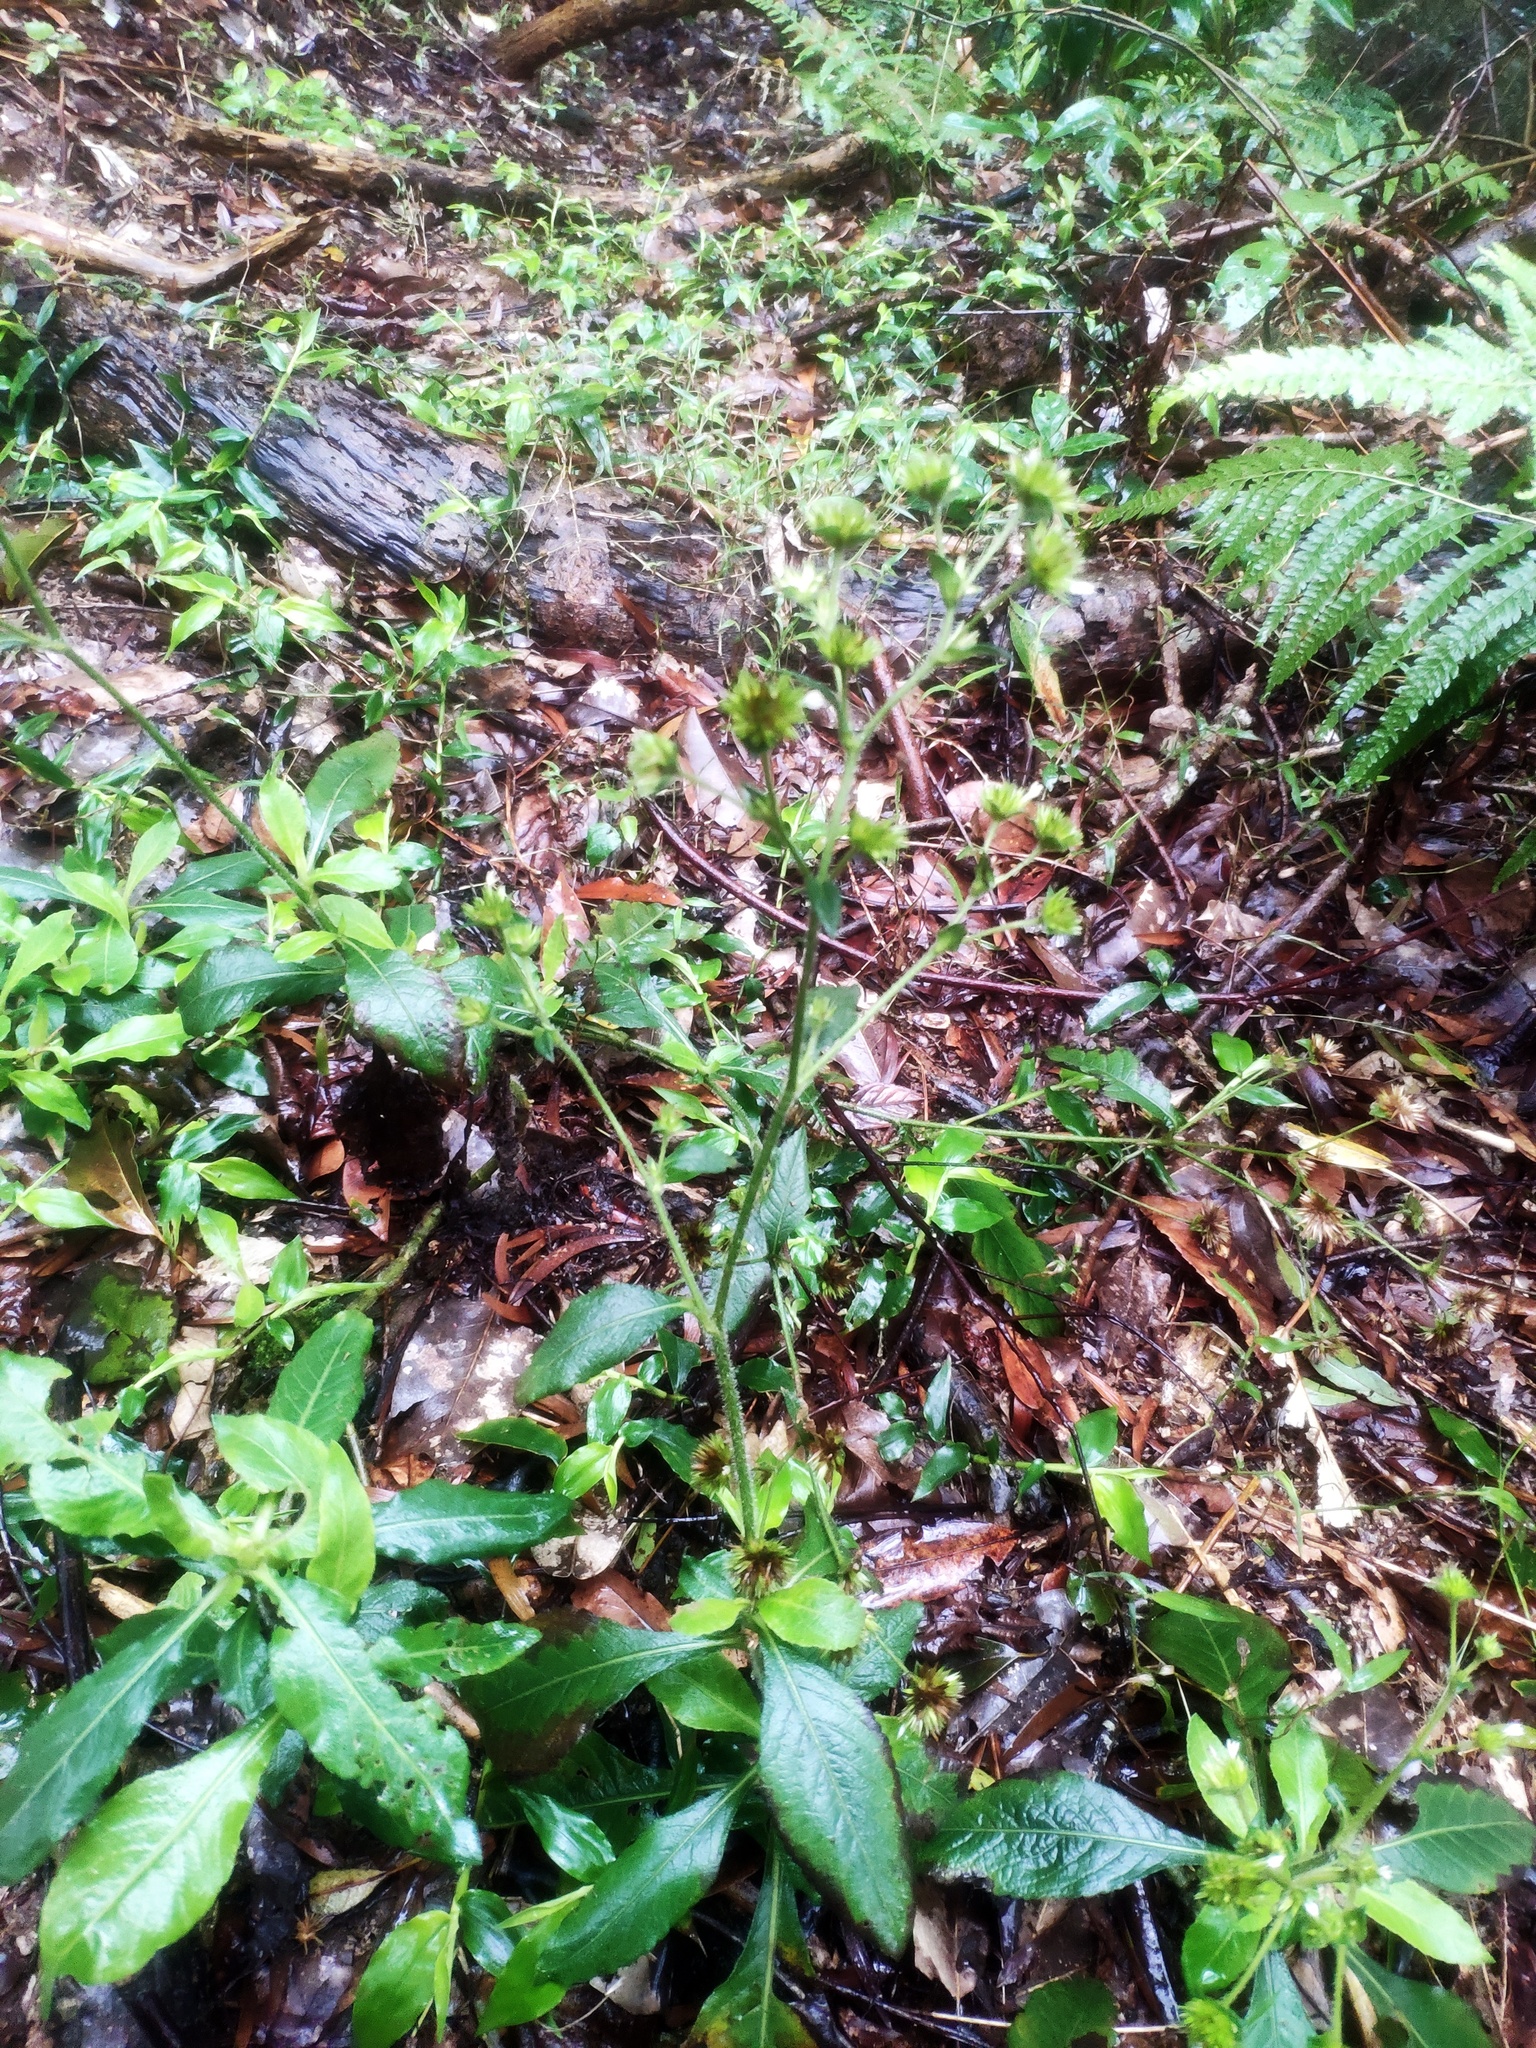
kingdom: Plantae
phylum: Tracheophyta
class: Magnoliopsida
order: Asterales
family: Asteraceae
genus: Elephantopus
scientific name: Elephantopus mollis
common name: Soft elephantsfoot
